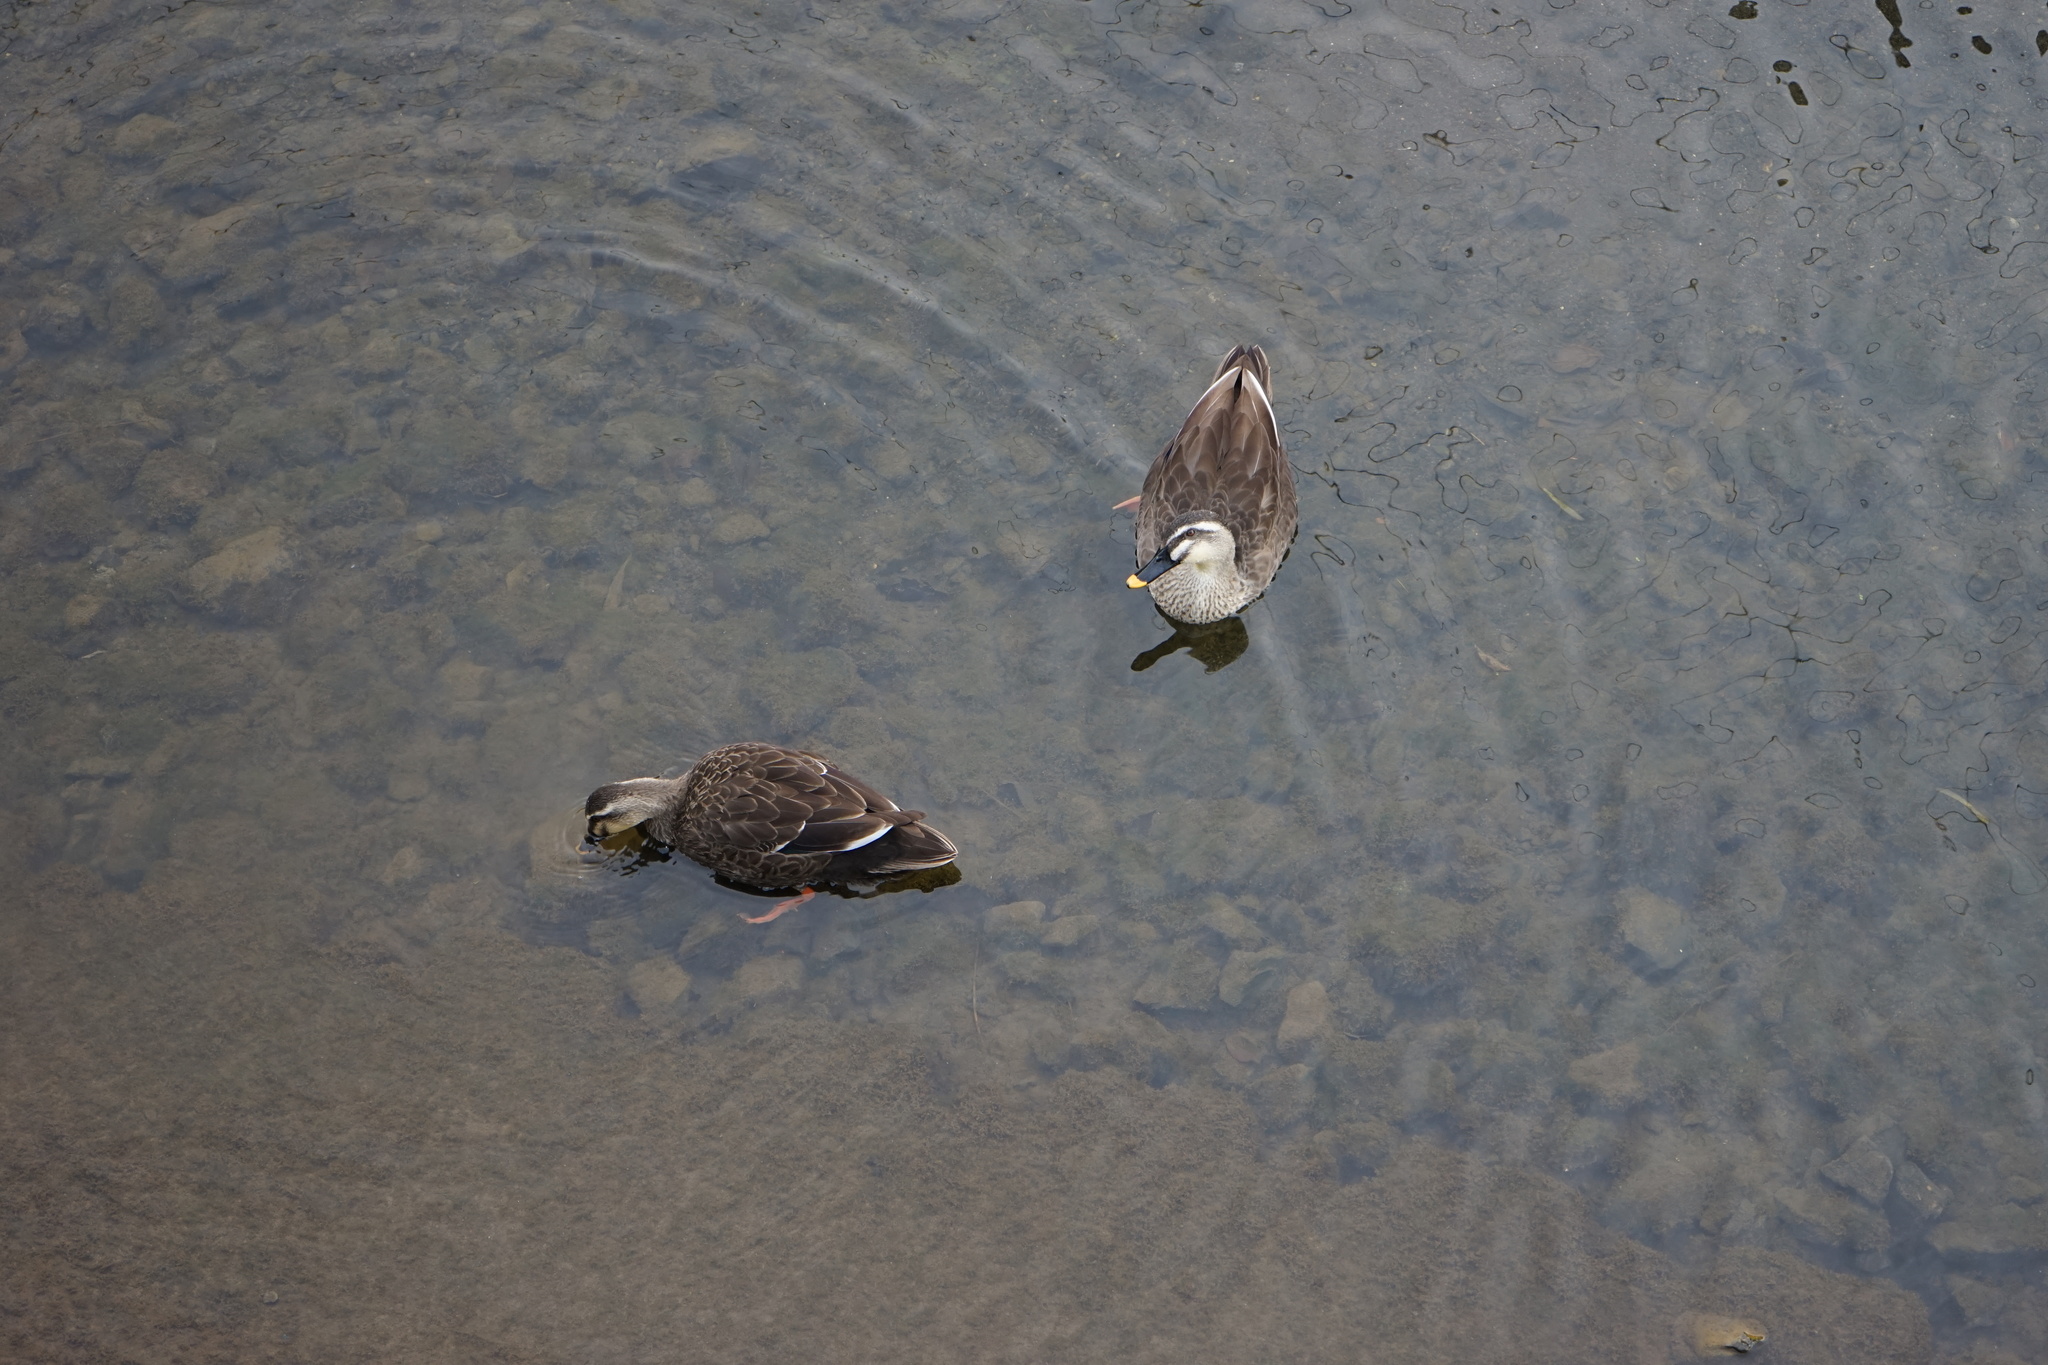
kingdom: Animalia
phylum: Chordata
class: Aves
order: Anseriformes
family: Anatidae
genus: Anas
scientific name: Anas zonorhyncha
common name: Eastern spot-billed duck
